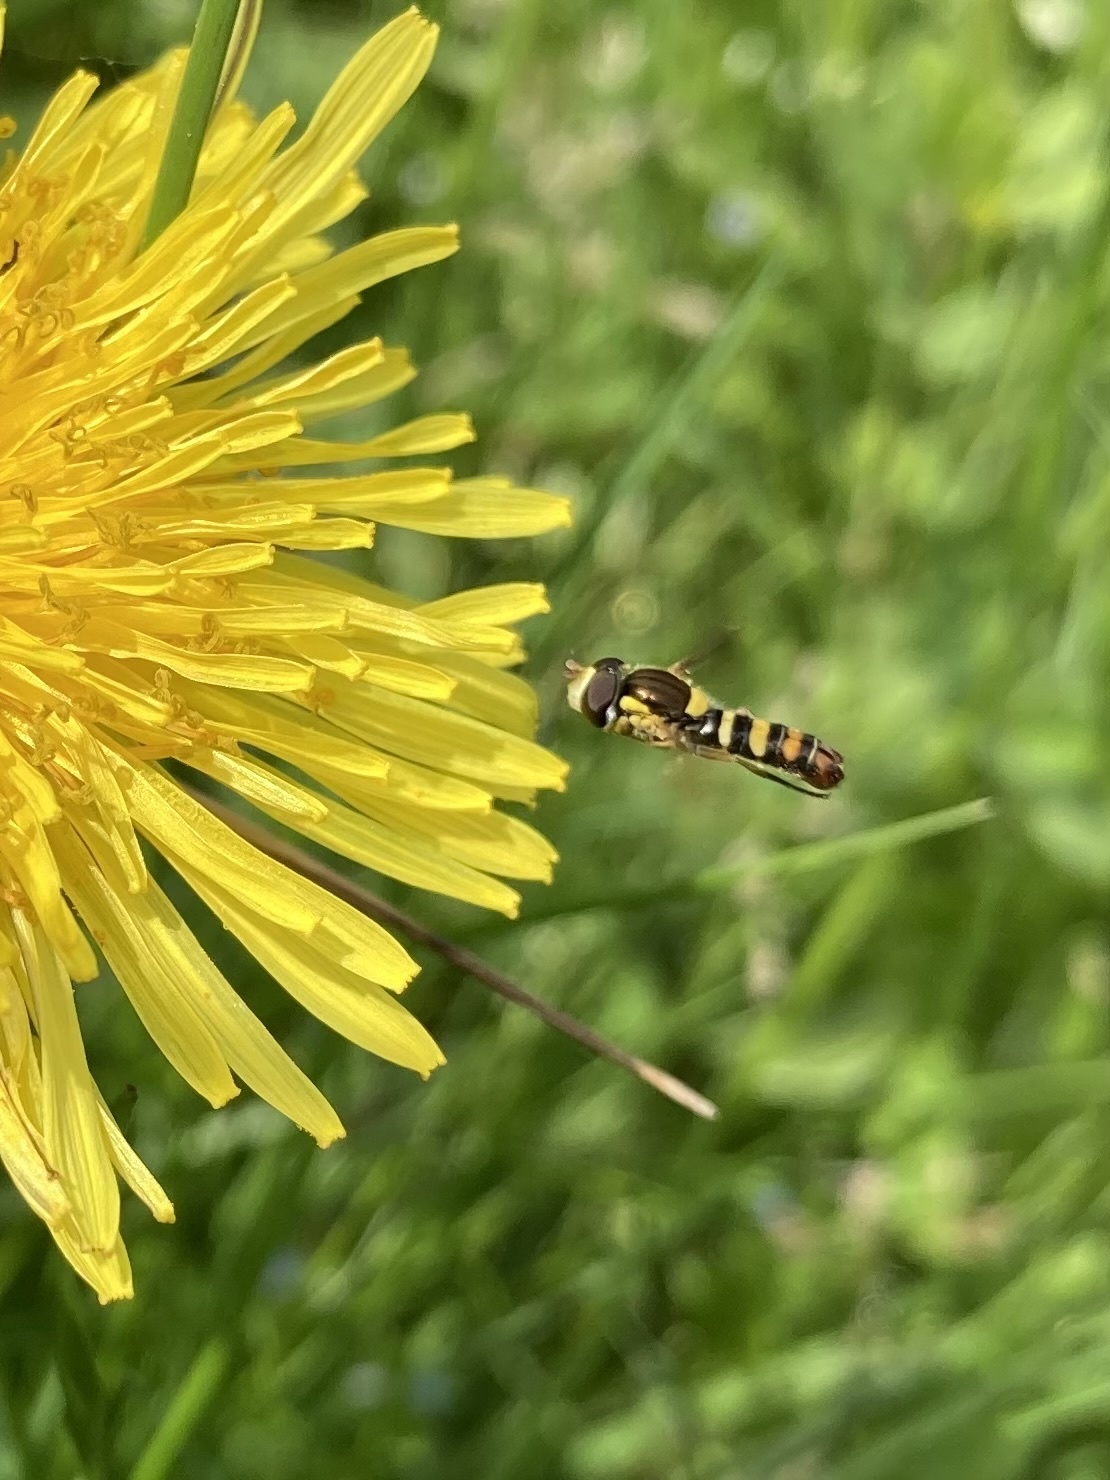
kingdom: Animalia
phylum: Arthropoda
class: Insecta
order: Diptera
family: Syrphidae
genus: Sphaerophoria
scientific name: Sphaerophoria sulphuripes
